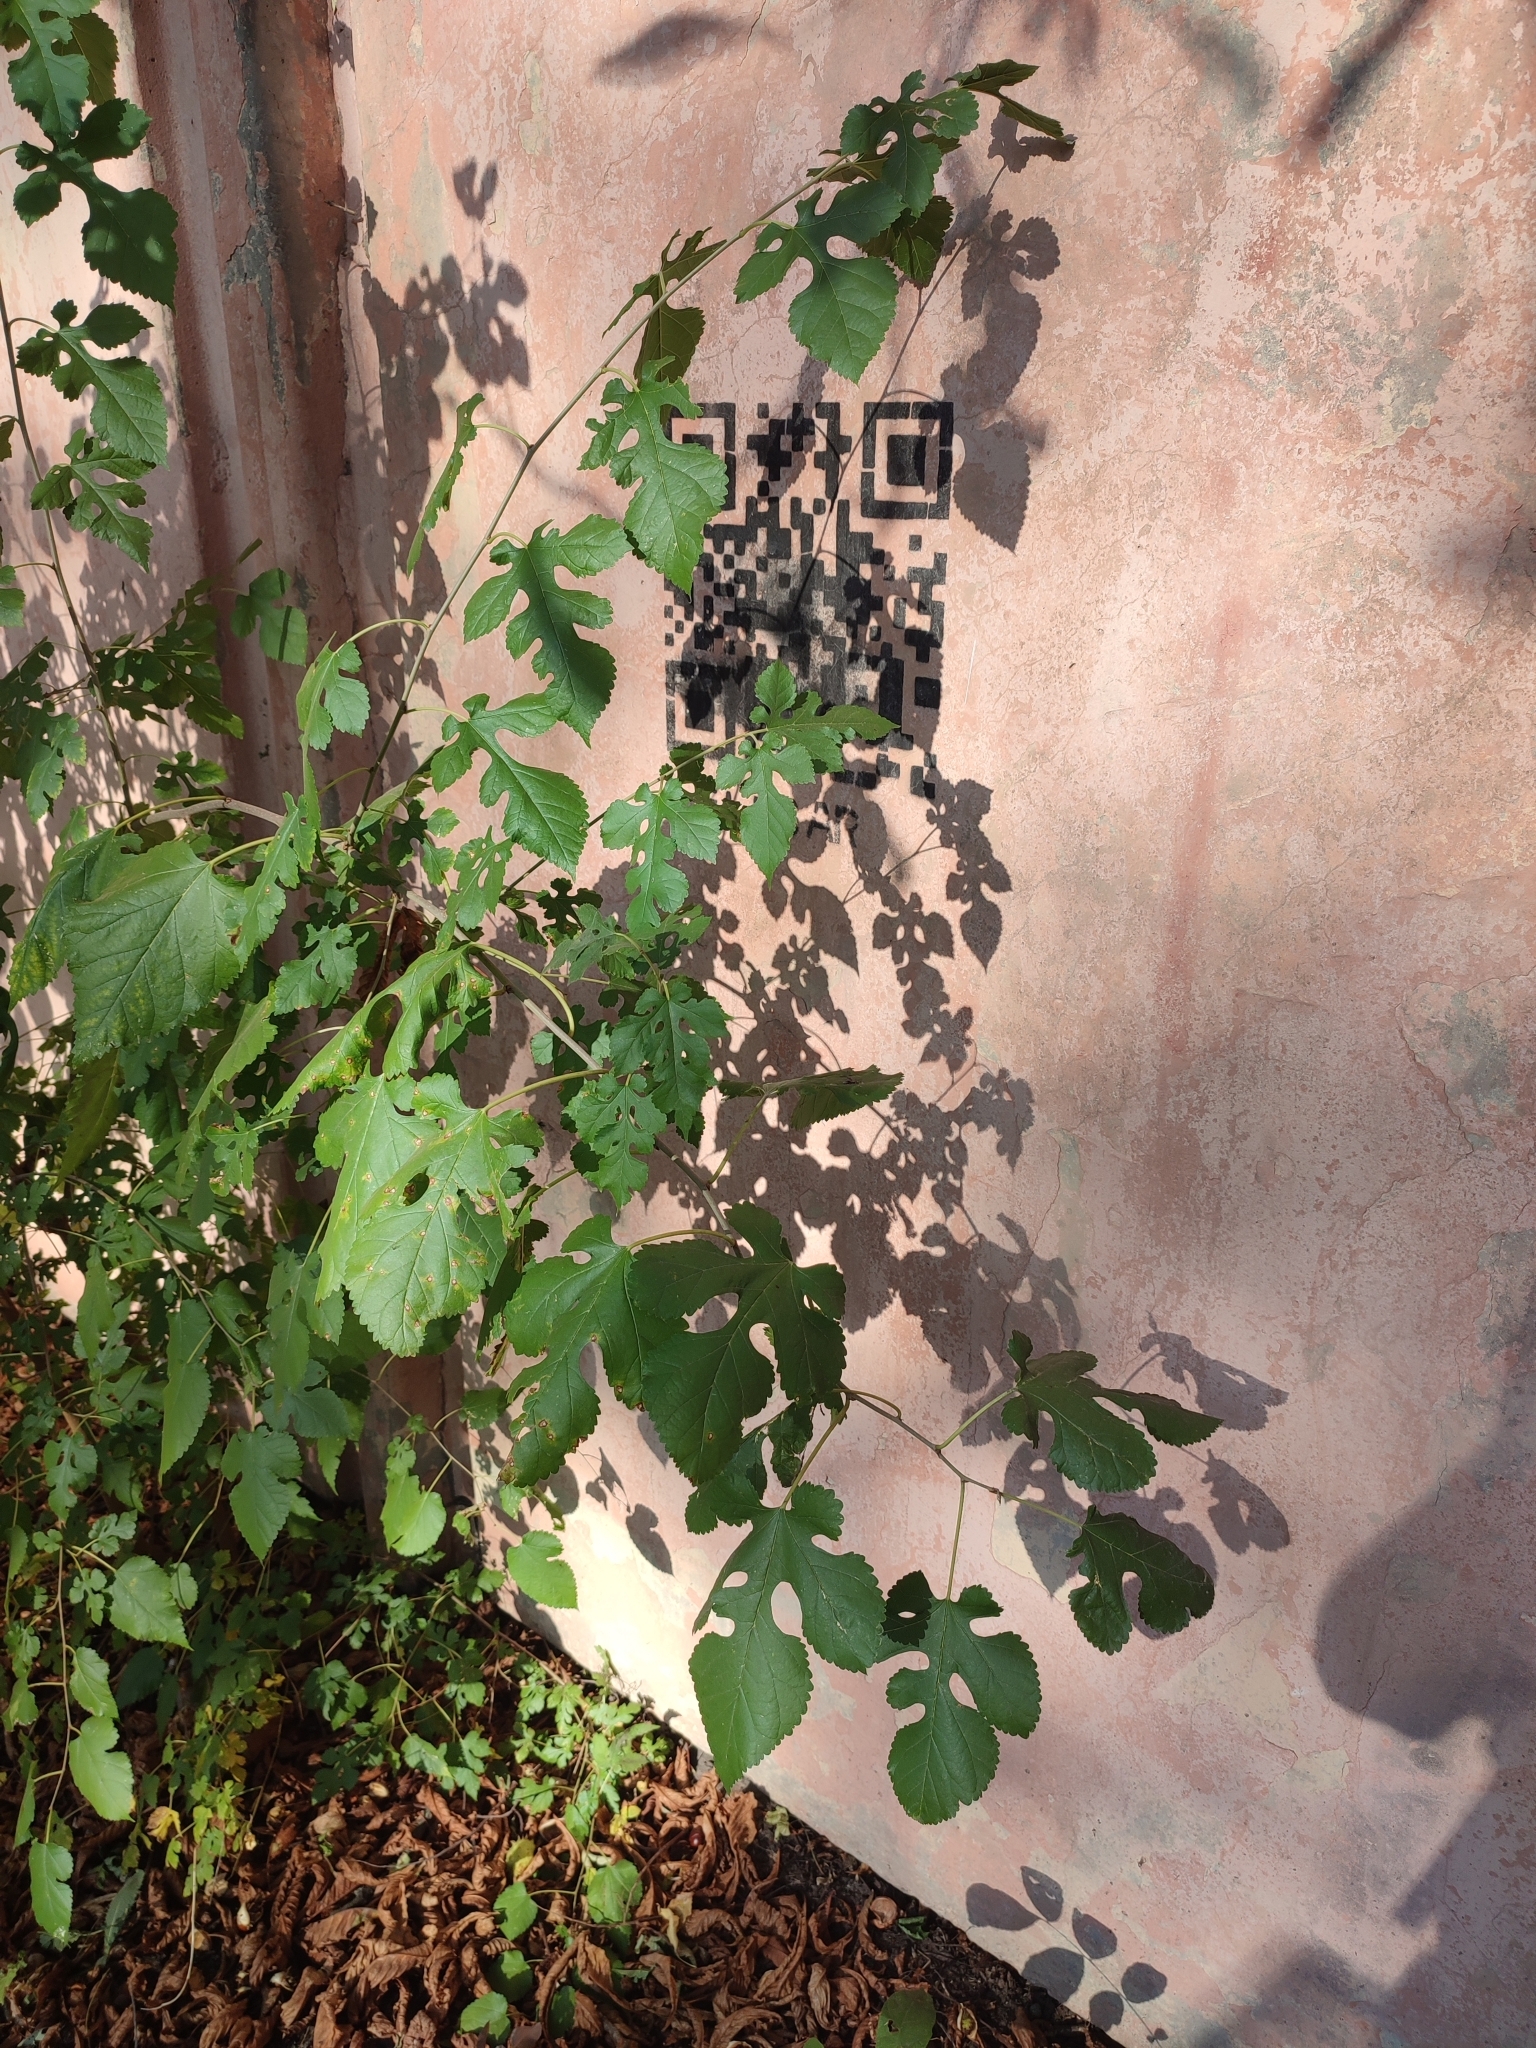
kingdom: Plantae
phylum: Tracheophyta
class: Magnoliopsida
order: Rosales
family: Moraceae
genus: Morus
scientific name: Morus alba
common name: White mulberry
